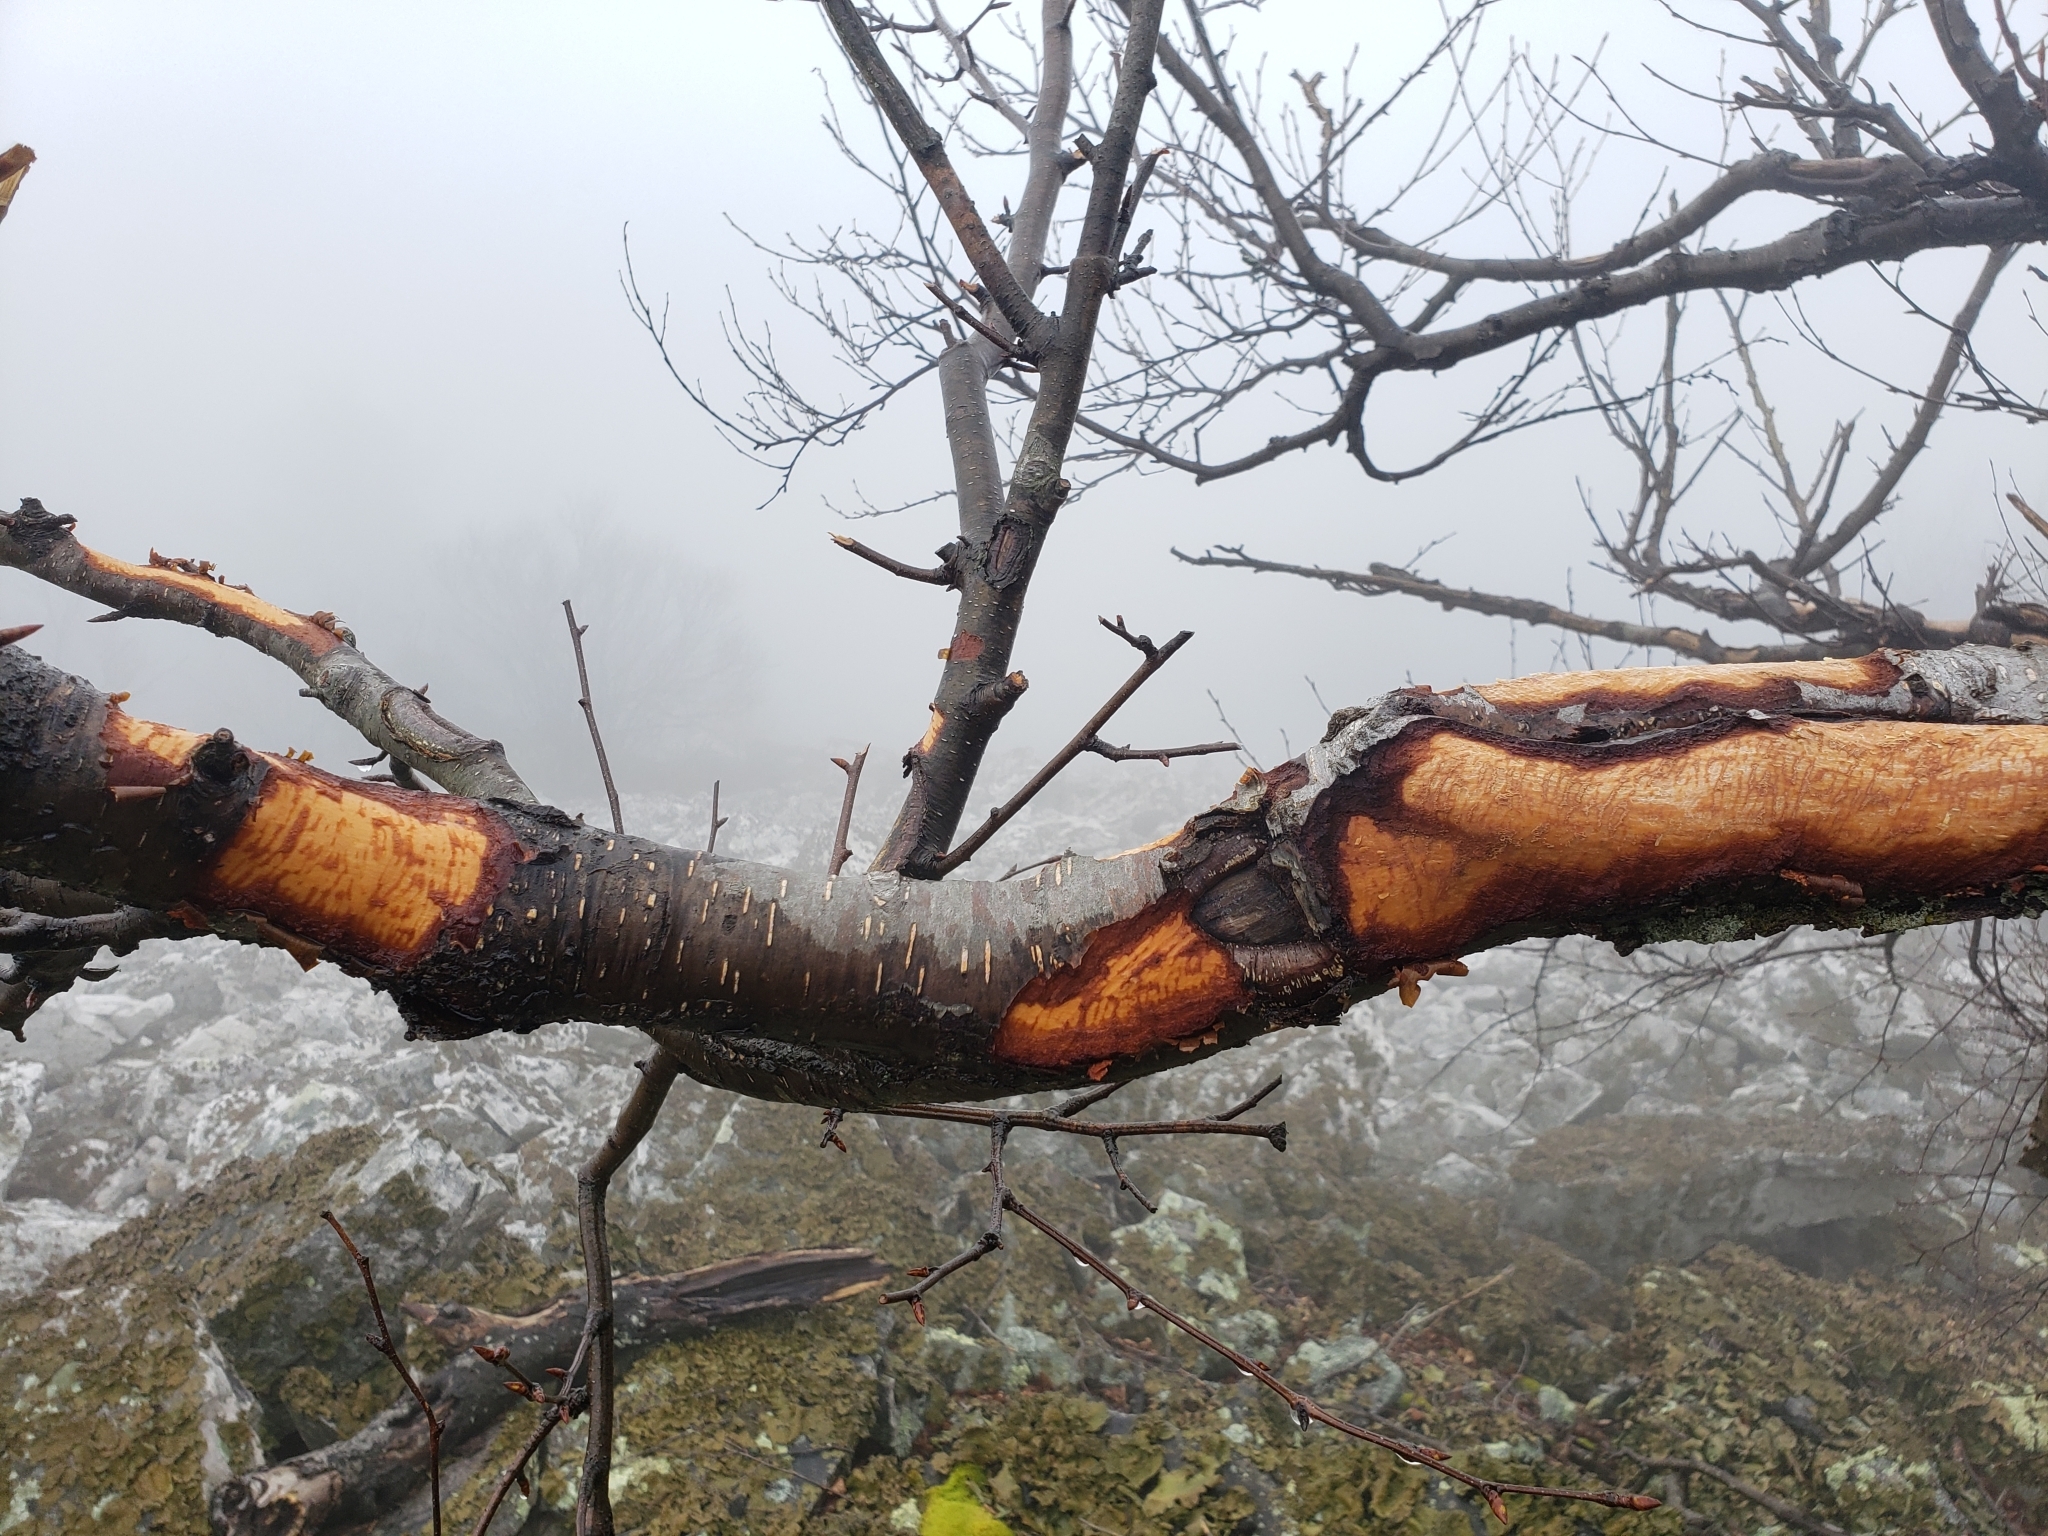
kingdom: Animalia
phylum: Chordata
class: Mammalia
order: Rodentia
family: Erethizontidae
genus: Erethizon
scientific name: Erethizon dorsatus
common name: North american porcupine
